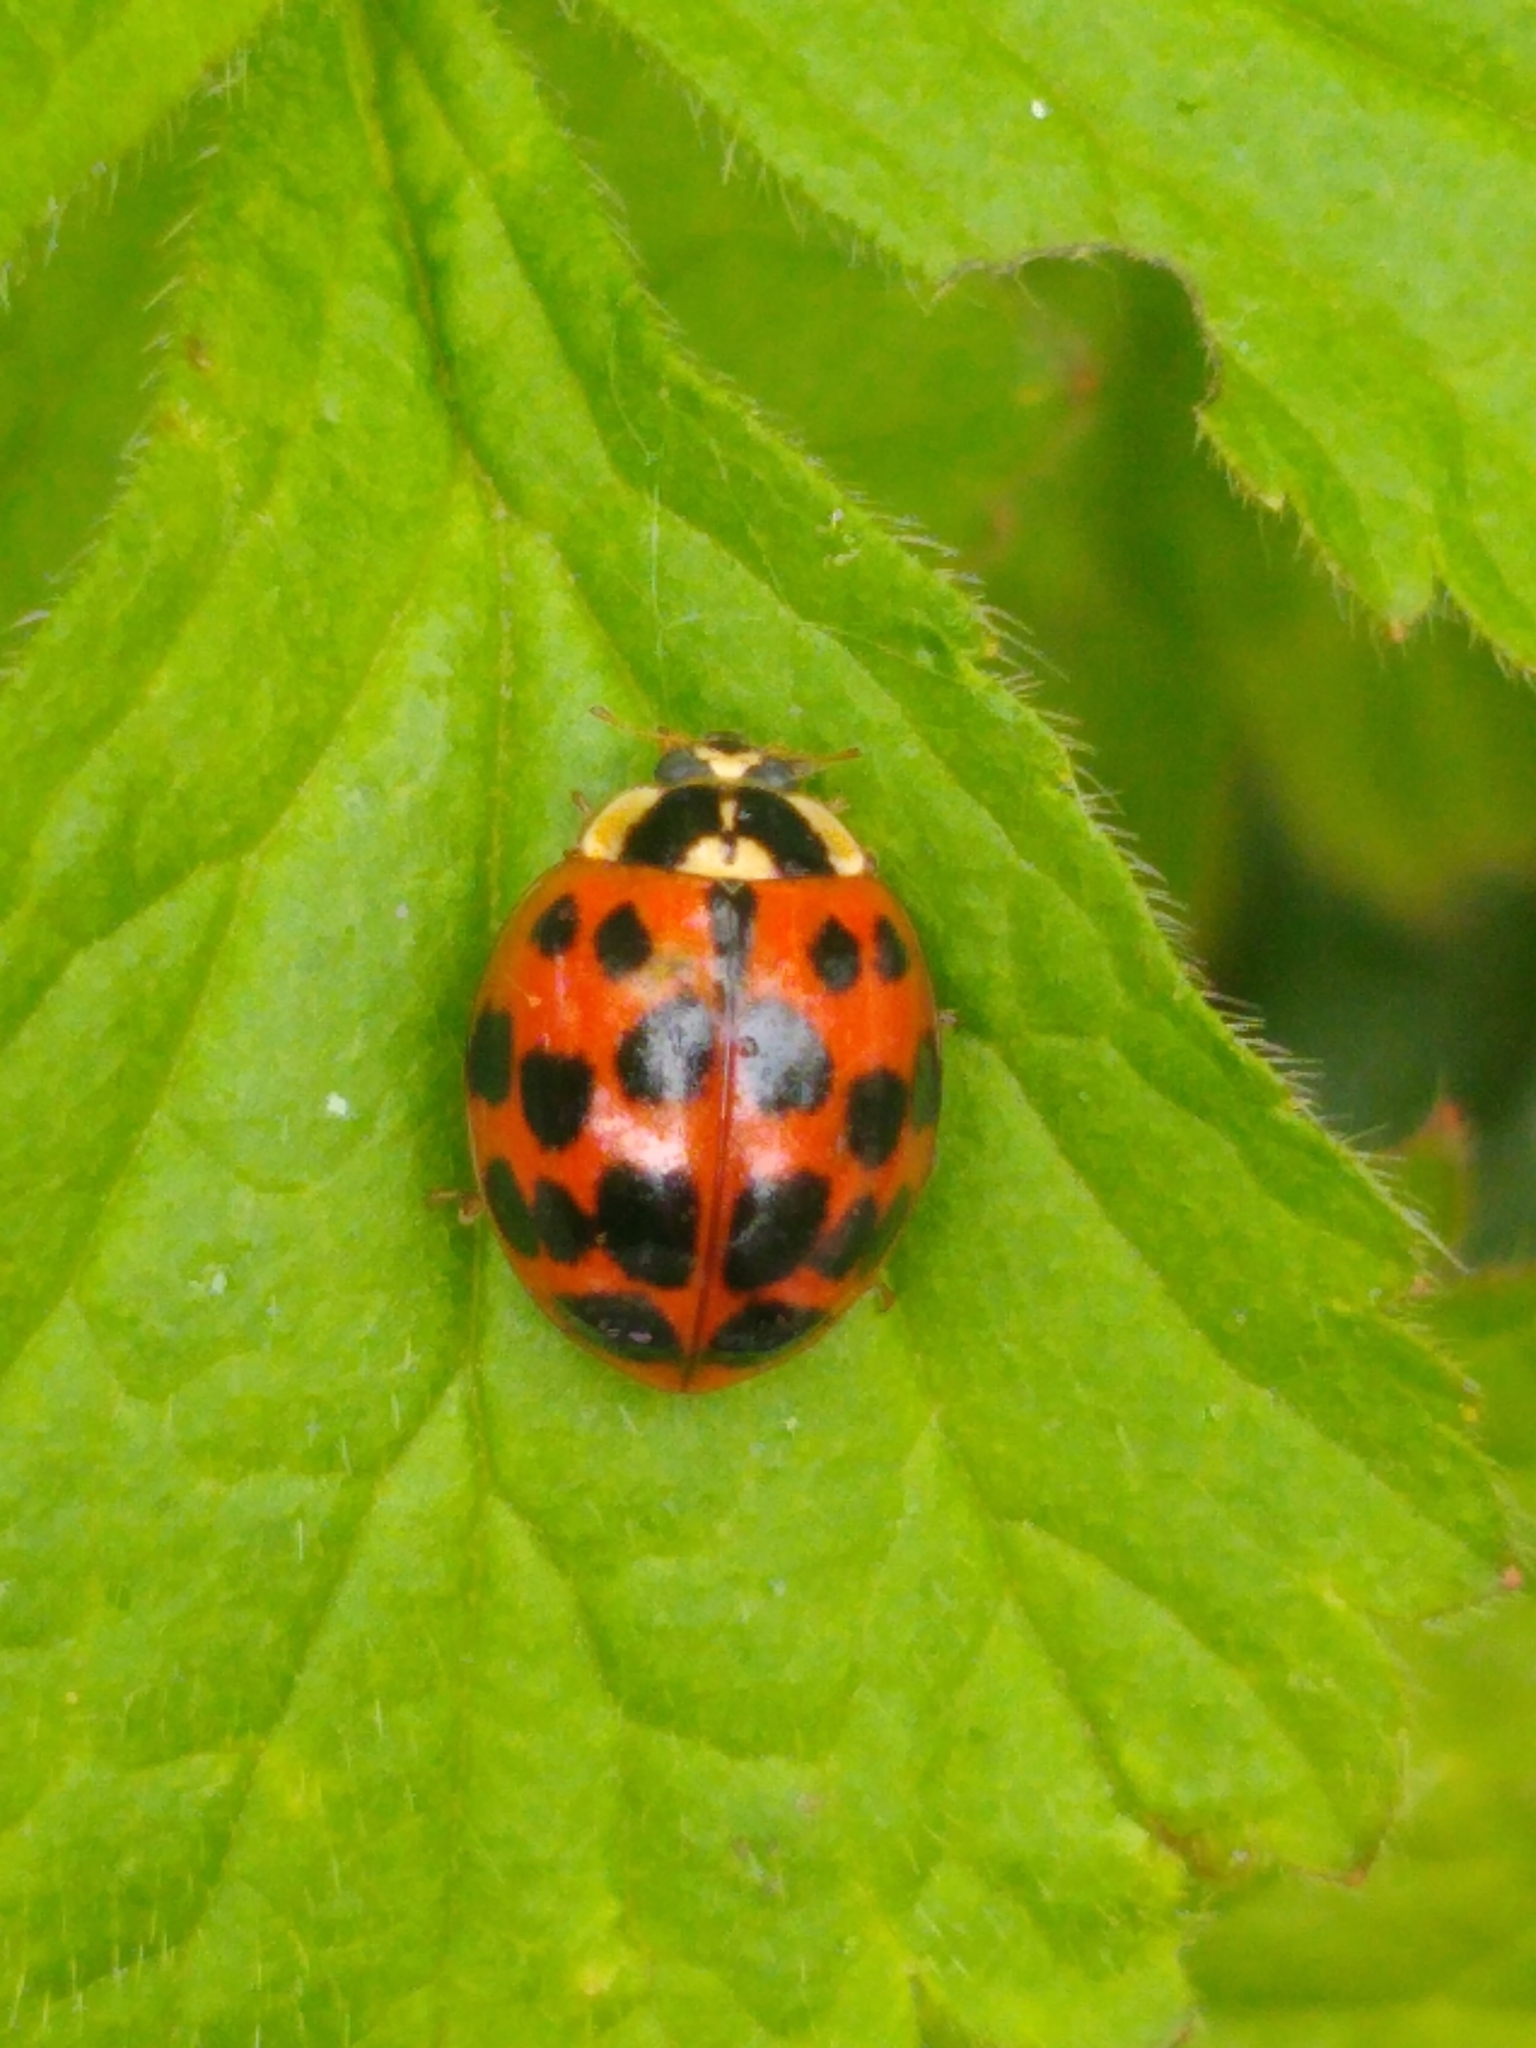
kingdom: Animalia
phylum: Arthropoda
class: Insecta
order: Coleoptera
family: Coccinellidae
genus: Harmonia
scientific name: Harmonia axyridis
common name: Harlequin ladybird
